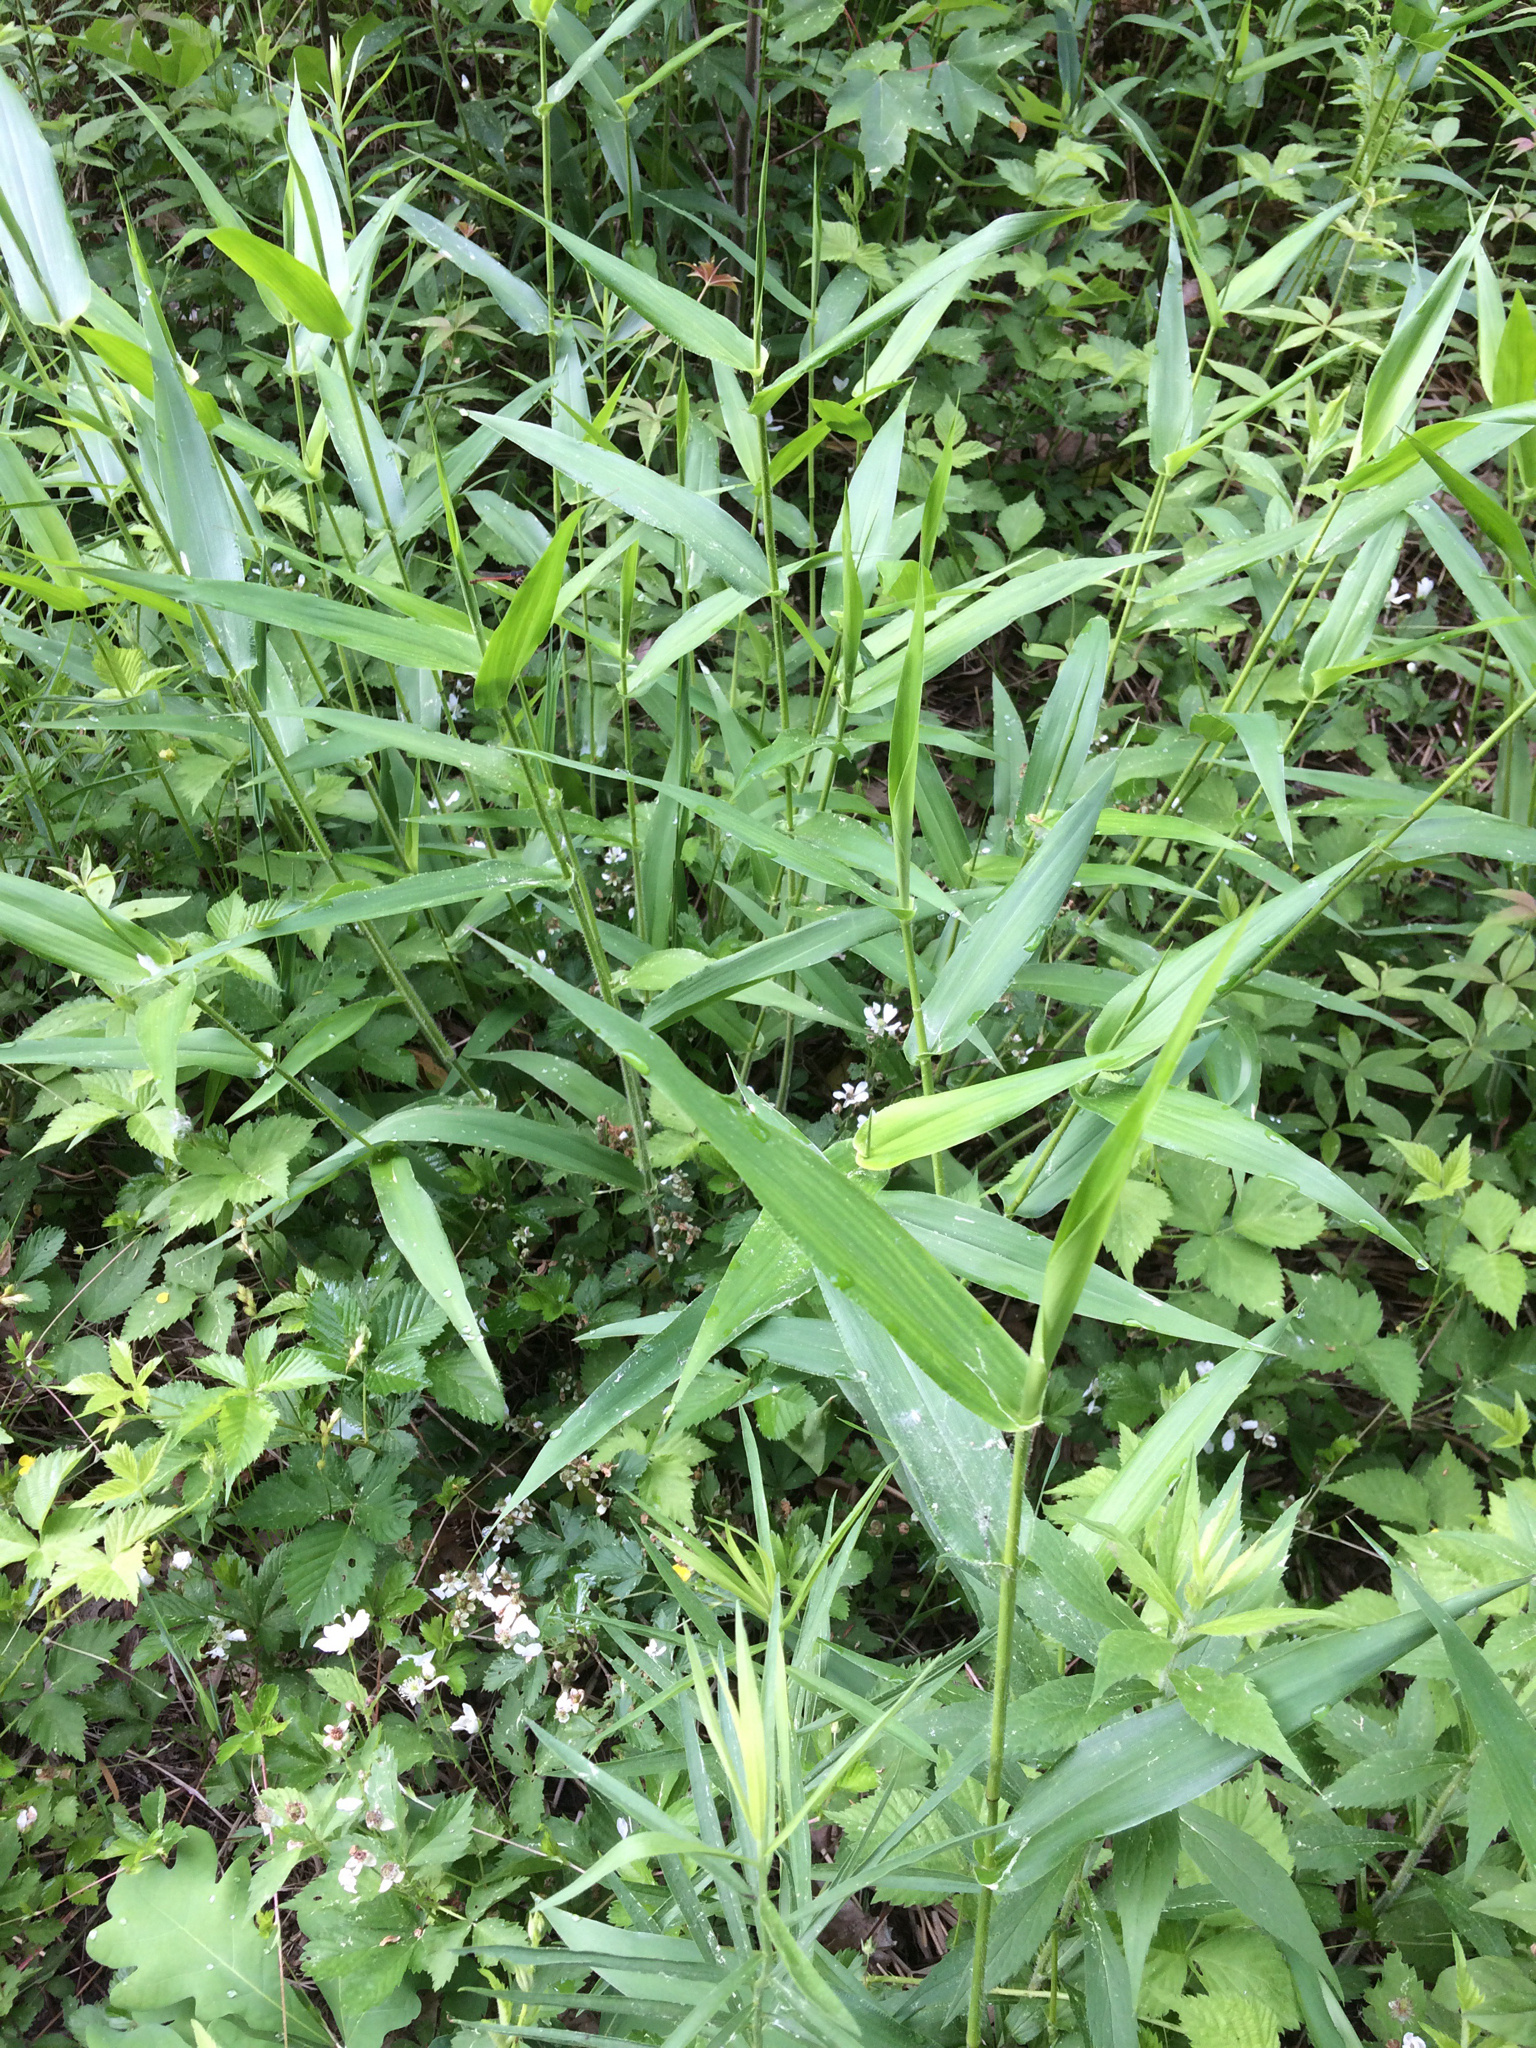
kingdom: Plantae
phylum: Tracheophyta
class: Liliopsida
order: Poales
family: Poaceae
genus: Dichanthelium
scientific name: Dichanthelium clandestinum
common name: Deer-tongue grass
